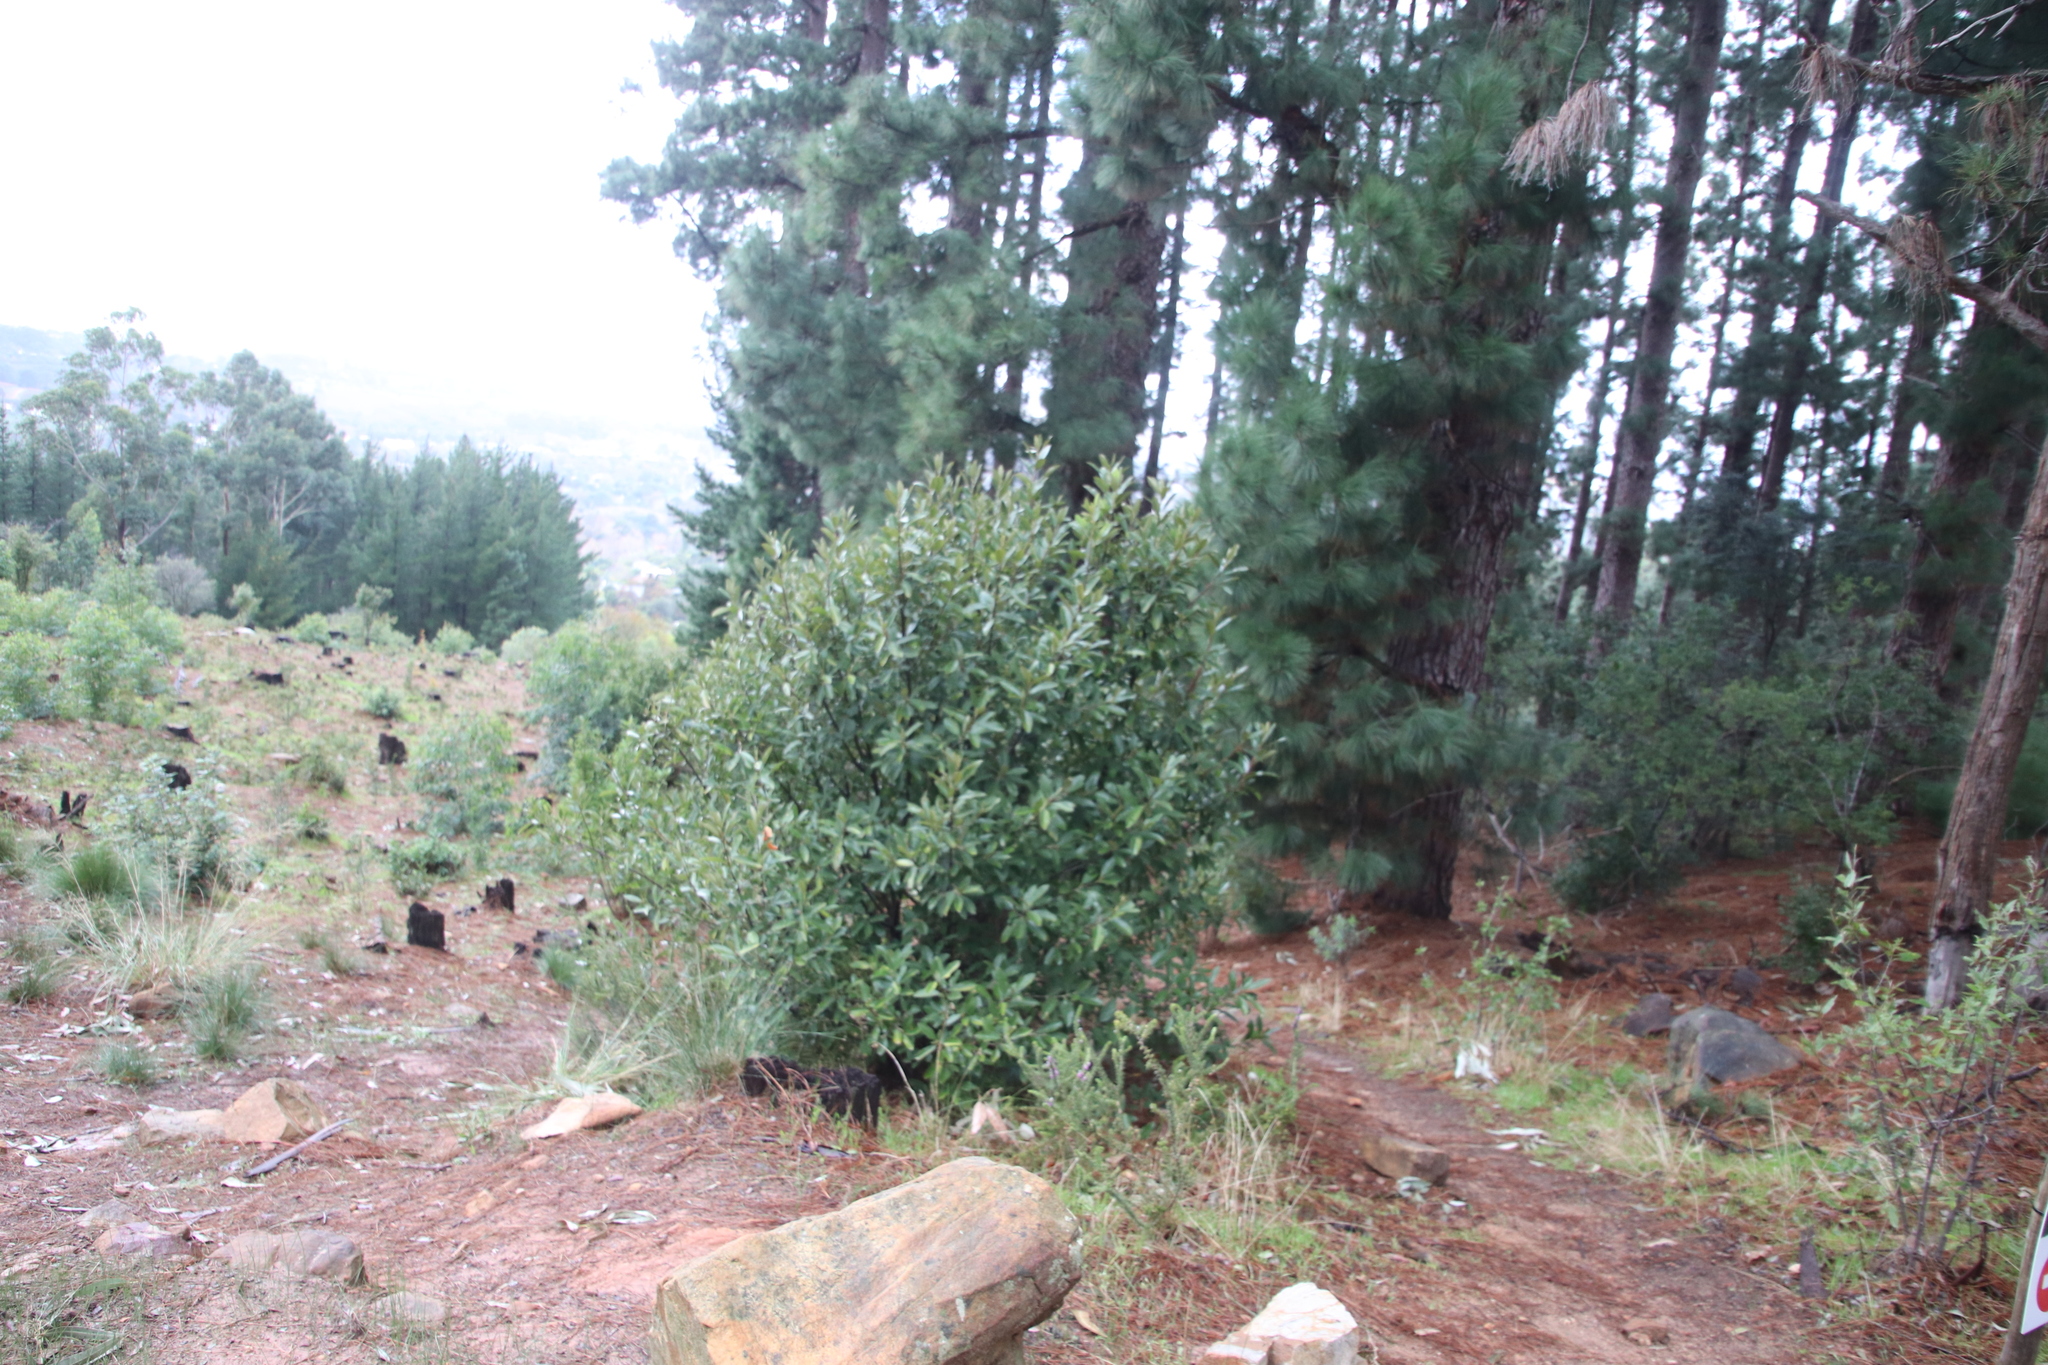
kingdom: Plantae
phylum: Tracheophyta
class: Magnoliopsida
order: Malpighiales
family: Achariaceae
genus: Kiggelaria
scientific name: Kiggelaria africana
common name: Wild peach
